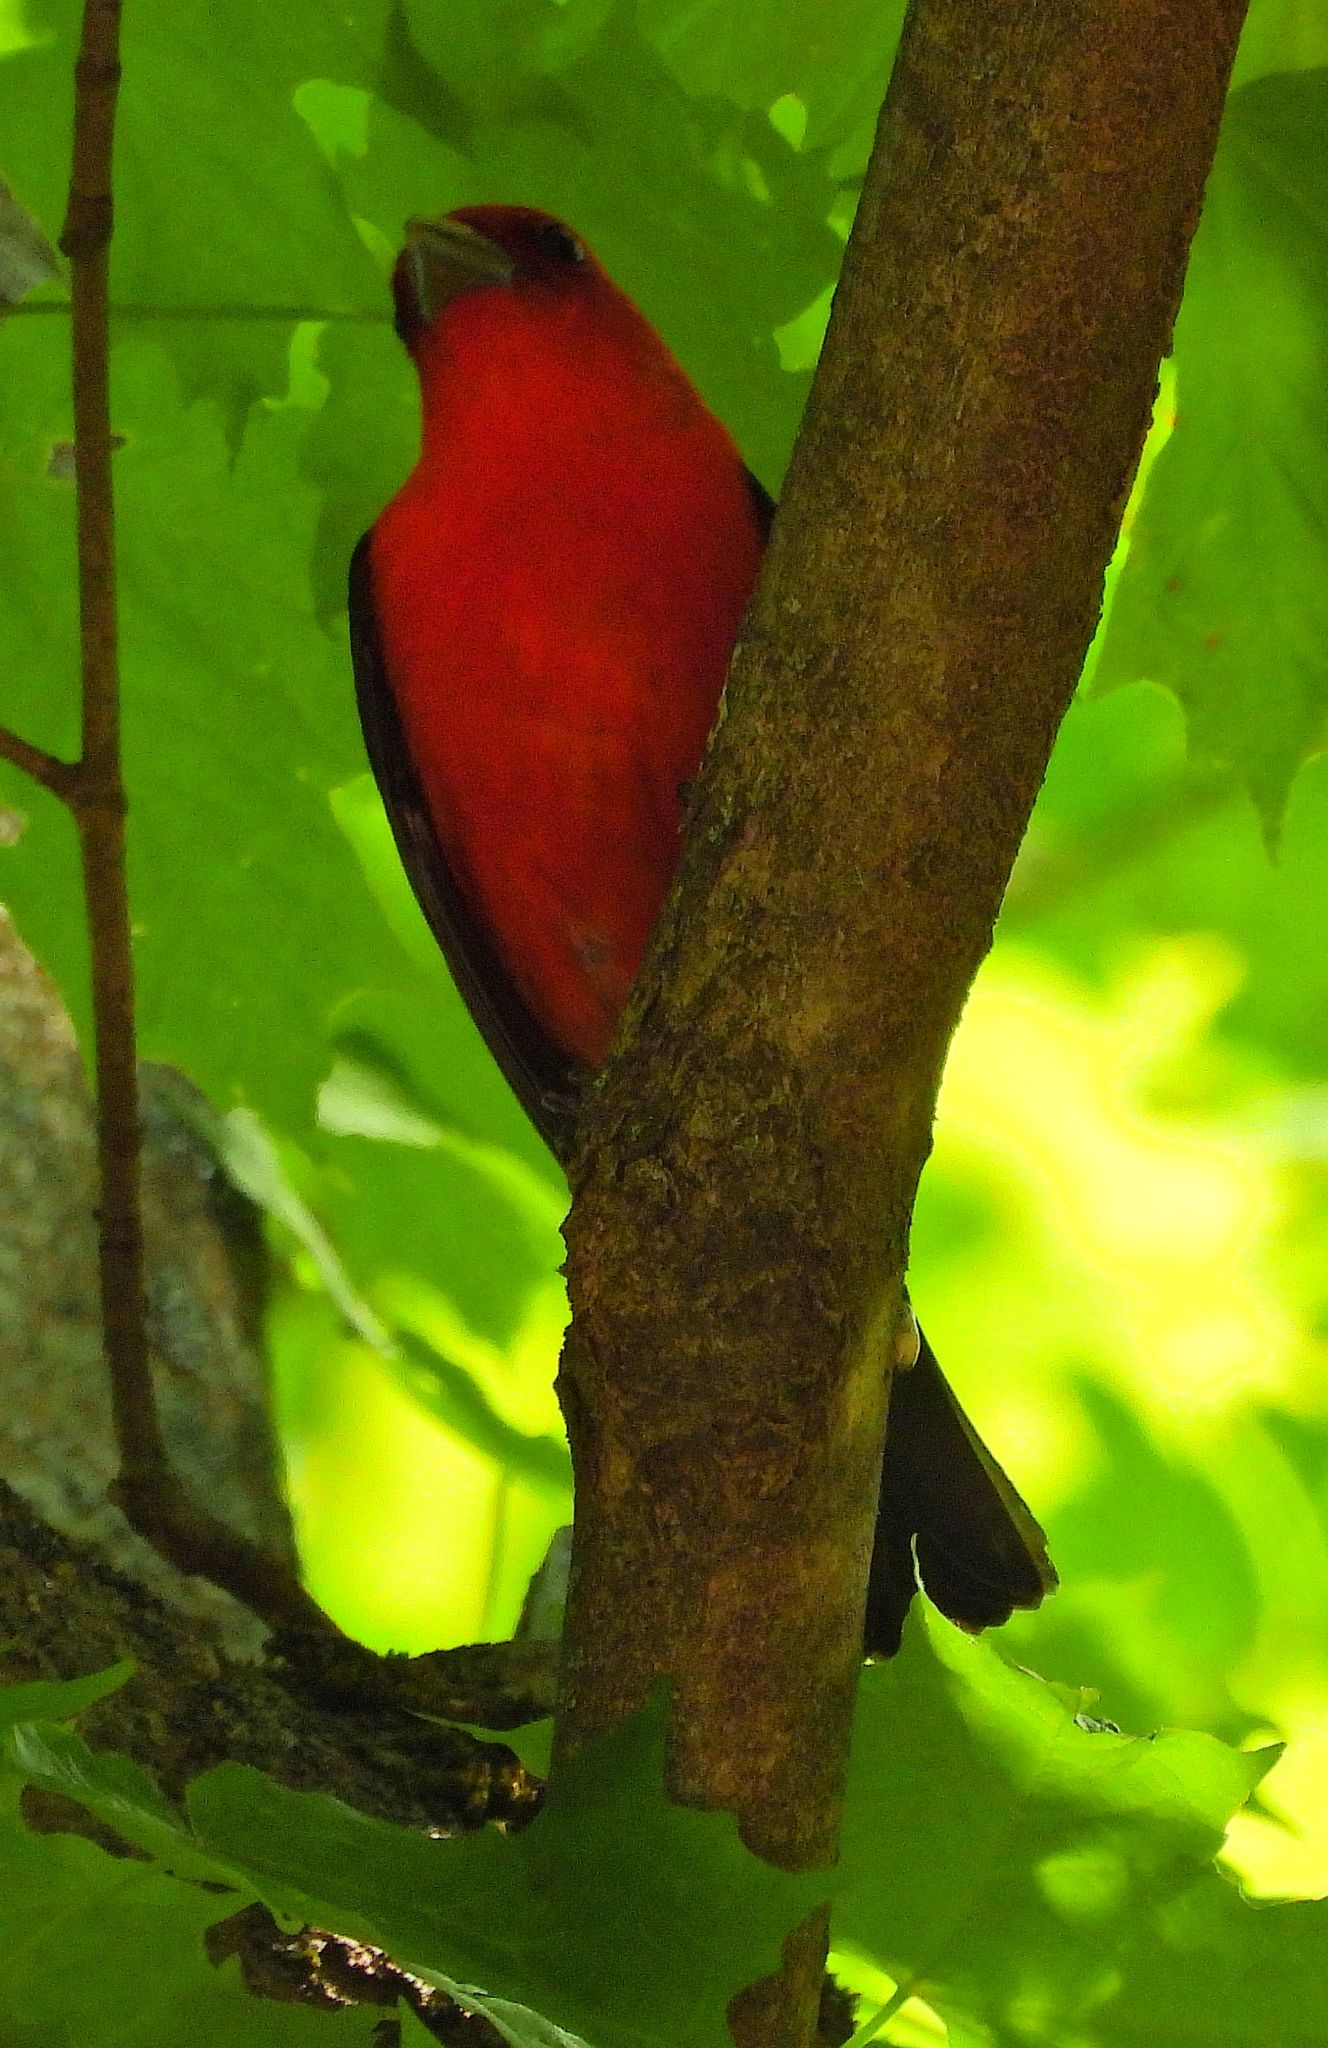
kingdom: Animalia
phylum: Chordata
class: Aves
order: Passeriformes
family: Cardinalidae
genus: Piranga
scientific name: Piranga olivacea
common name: Scarlet tanager
